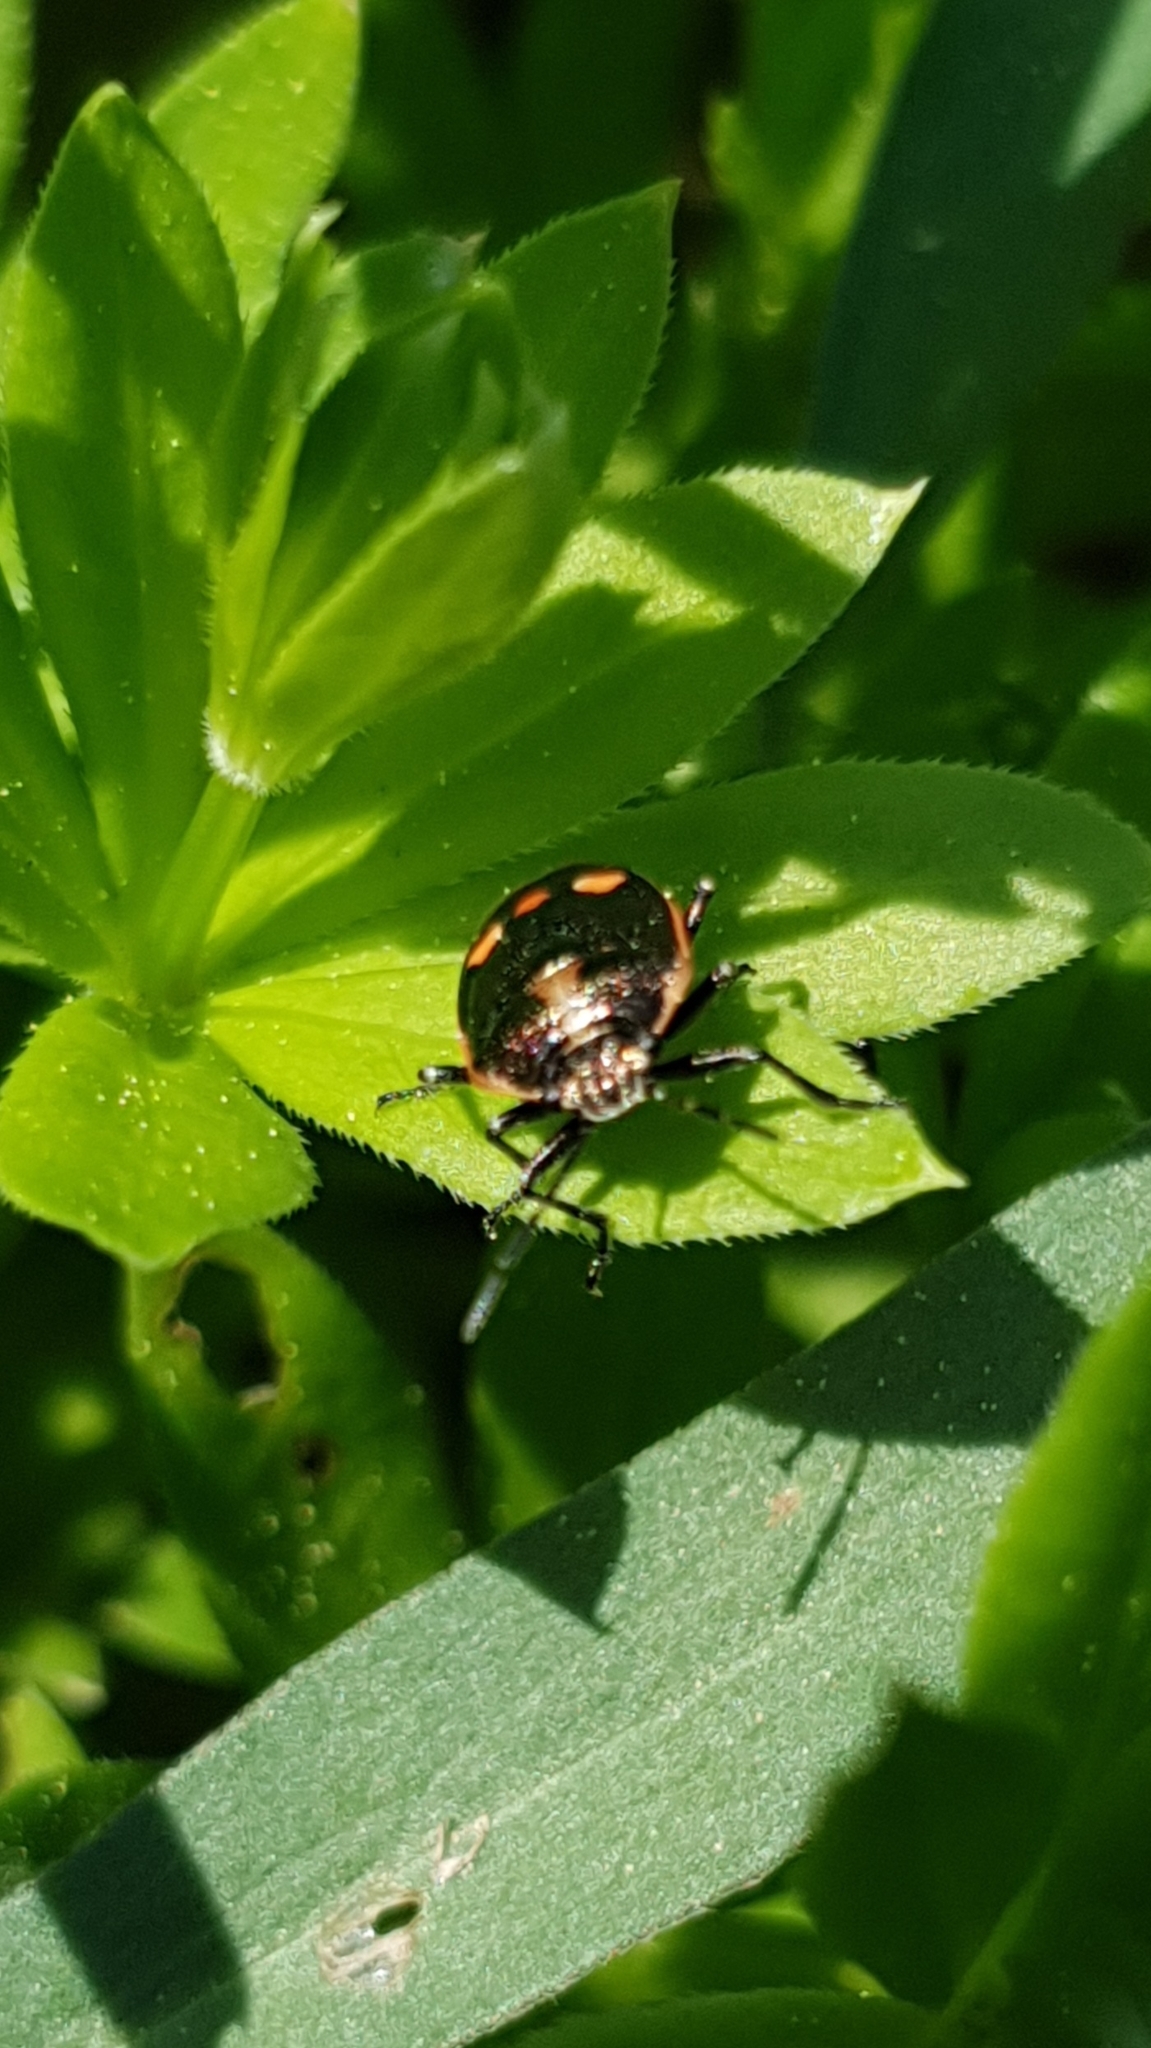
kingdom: Animalia
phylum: Arthropoda
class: Insecta
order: Hemiptera
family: Pentatomidae
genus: Eurydema
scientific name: Eurydema oleracea
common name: Cabbage bug
